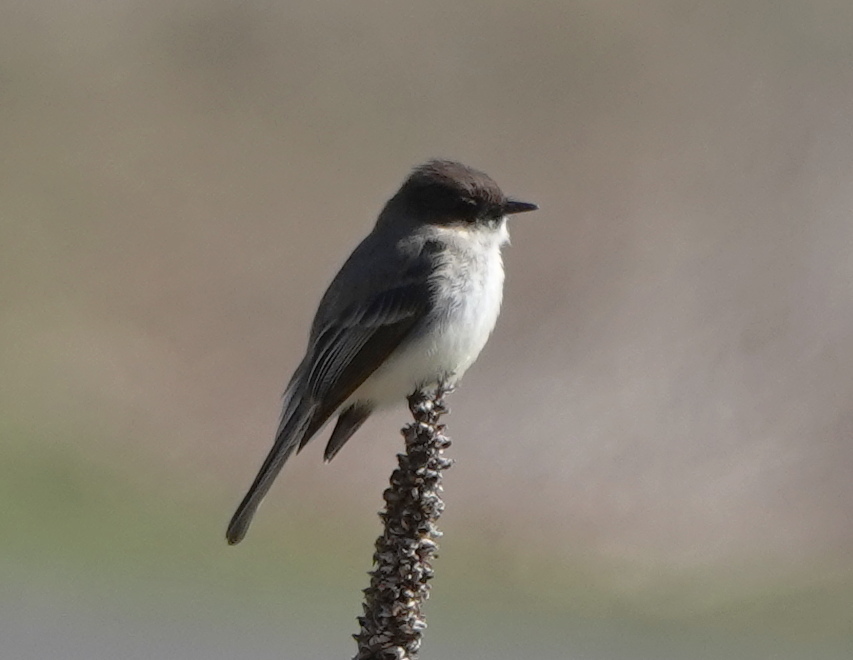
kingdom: Animalia
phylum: Chordata
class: Aves
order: Passeriformes
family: Tyrannidae
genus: Sayornis
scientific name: Sayornis phoebe
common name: Eastern phoebe
